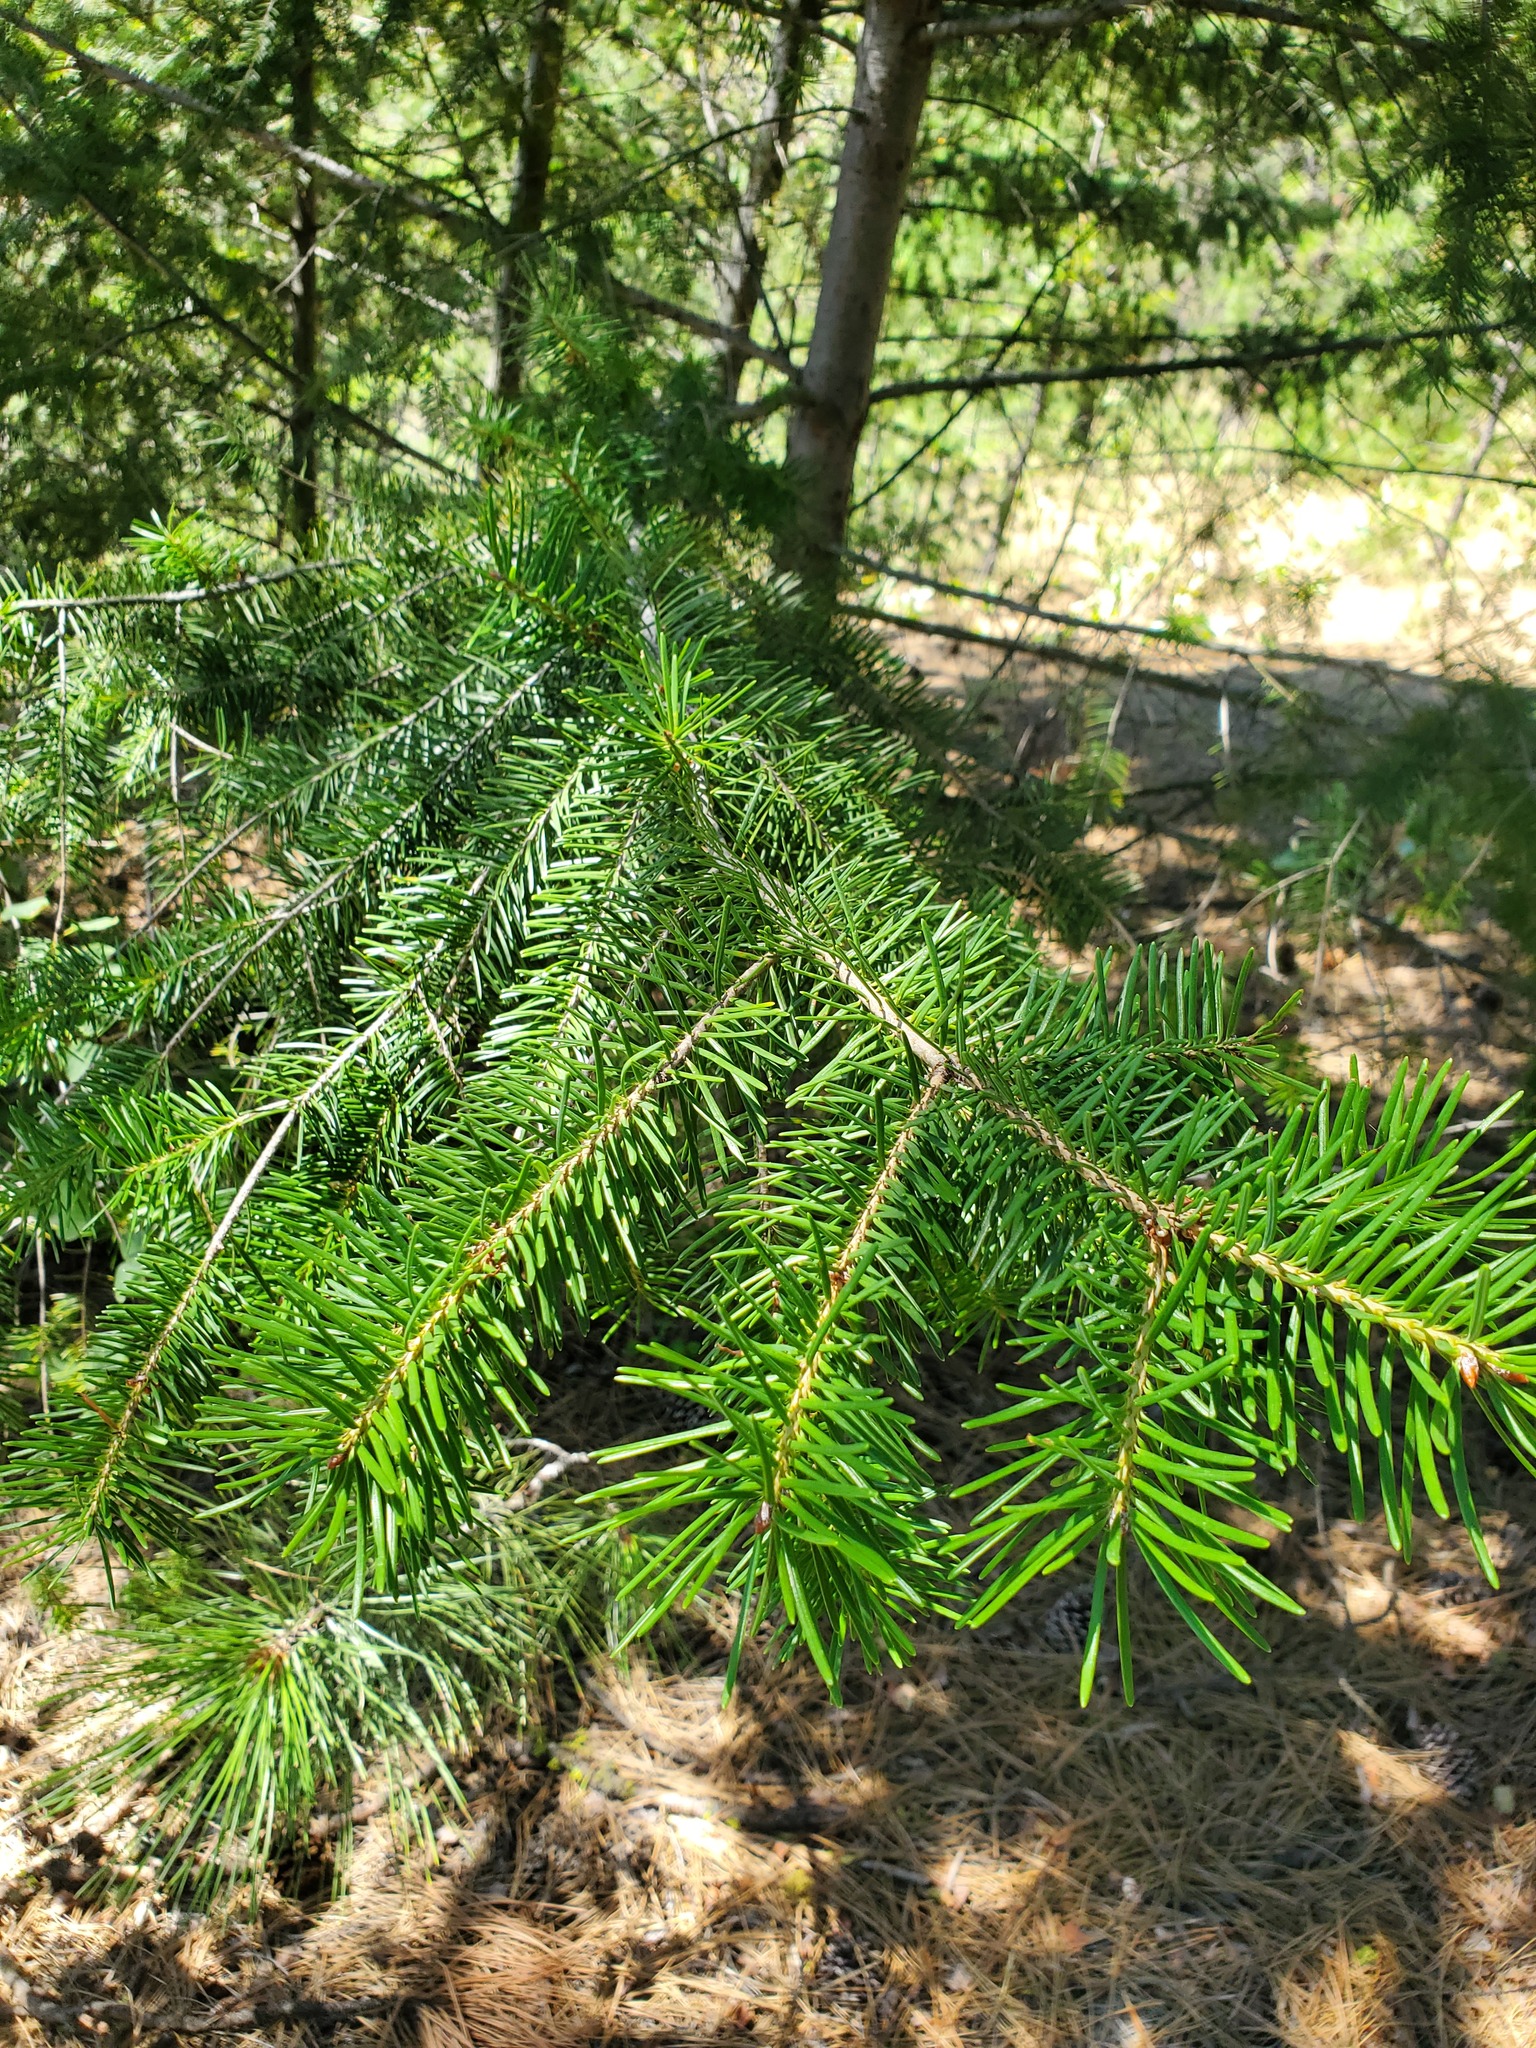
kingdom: Plantae
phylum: Tracheophyta
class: Pinopsida
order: Pinales
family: Pinaceae
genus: Pseudotsuga
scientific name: Pseudotsuga menziesii
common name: Douglas fir
